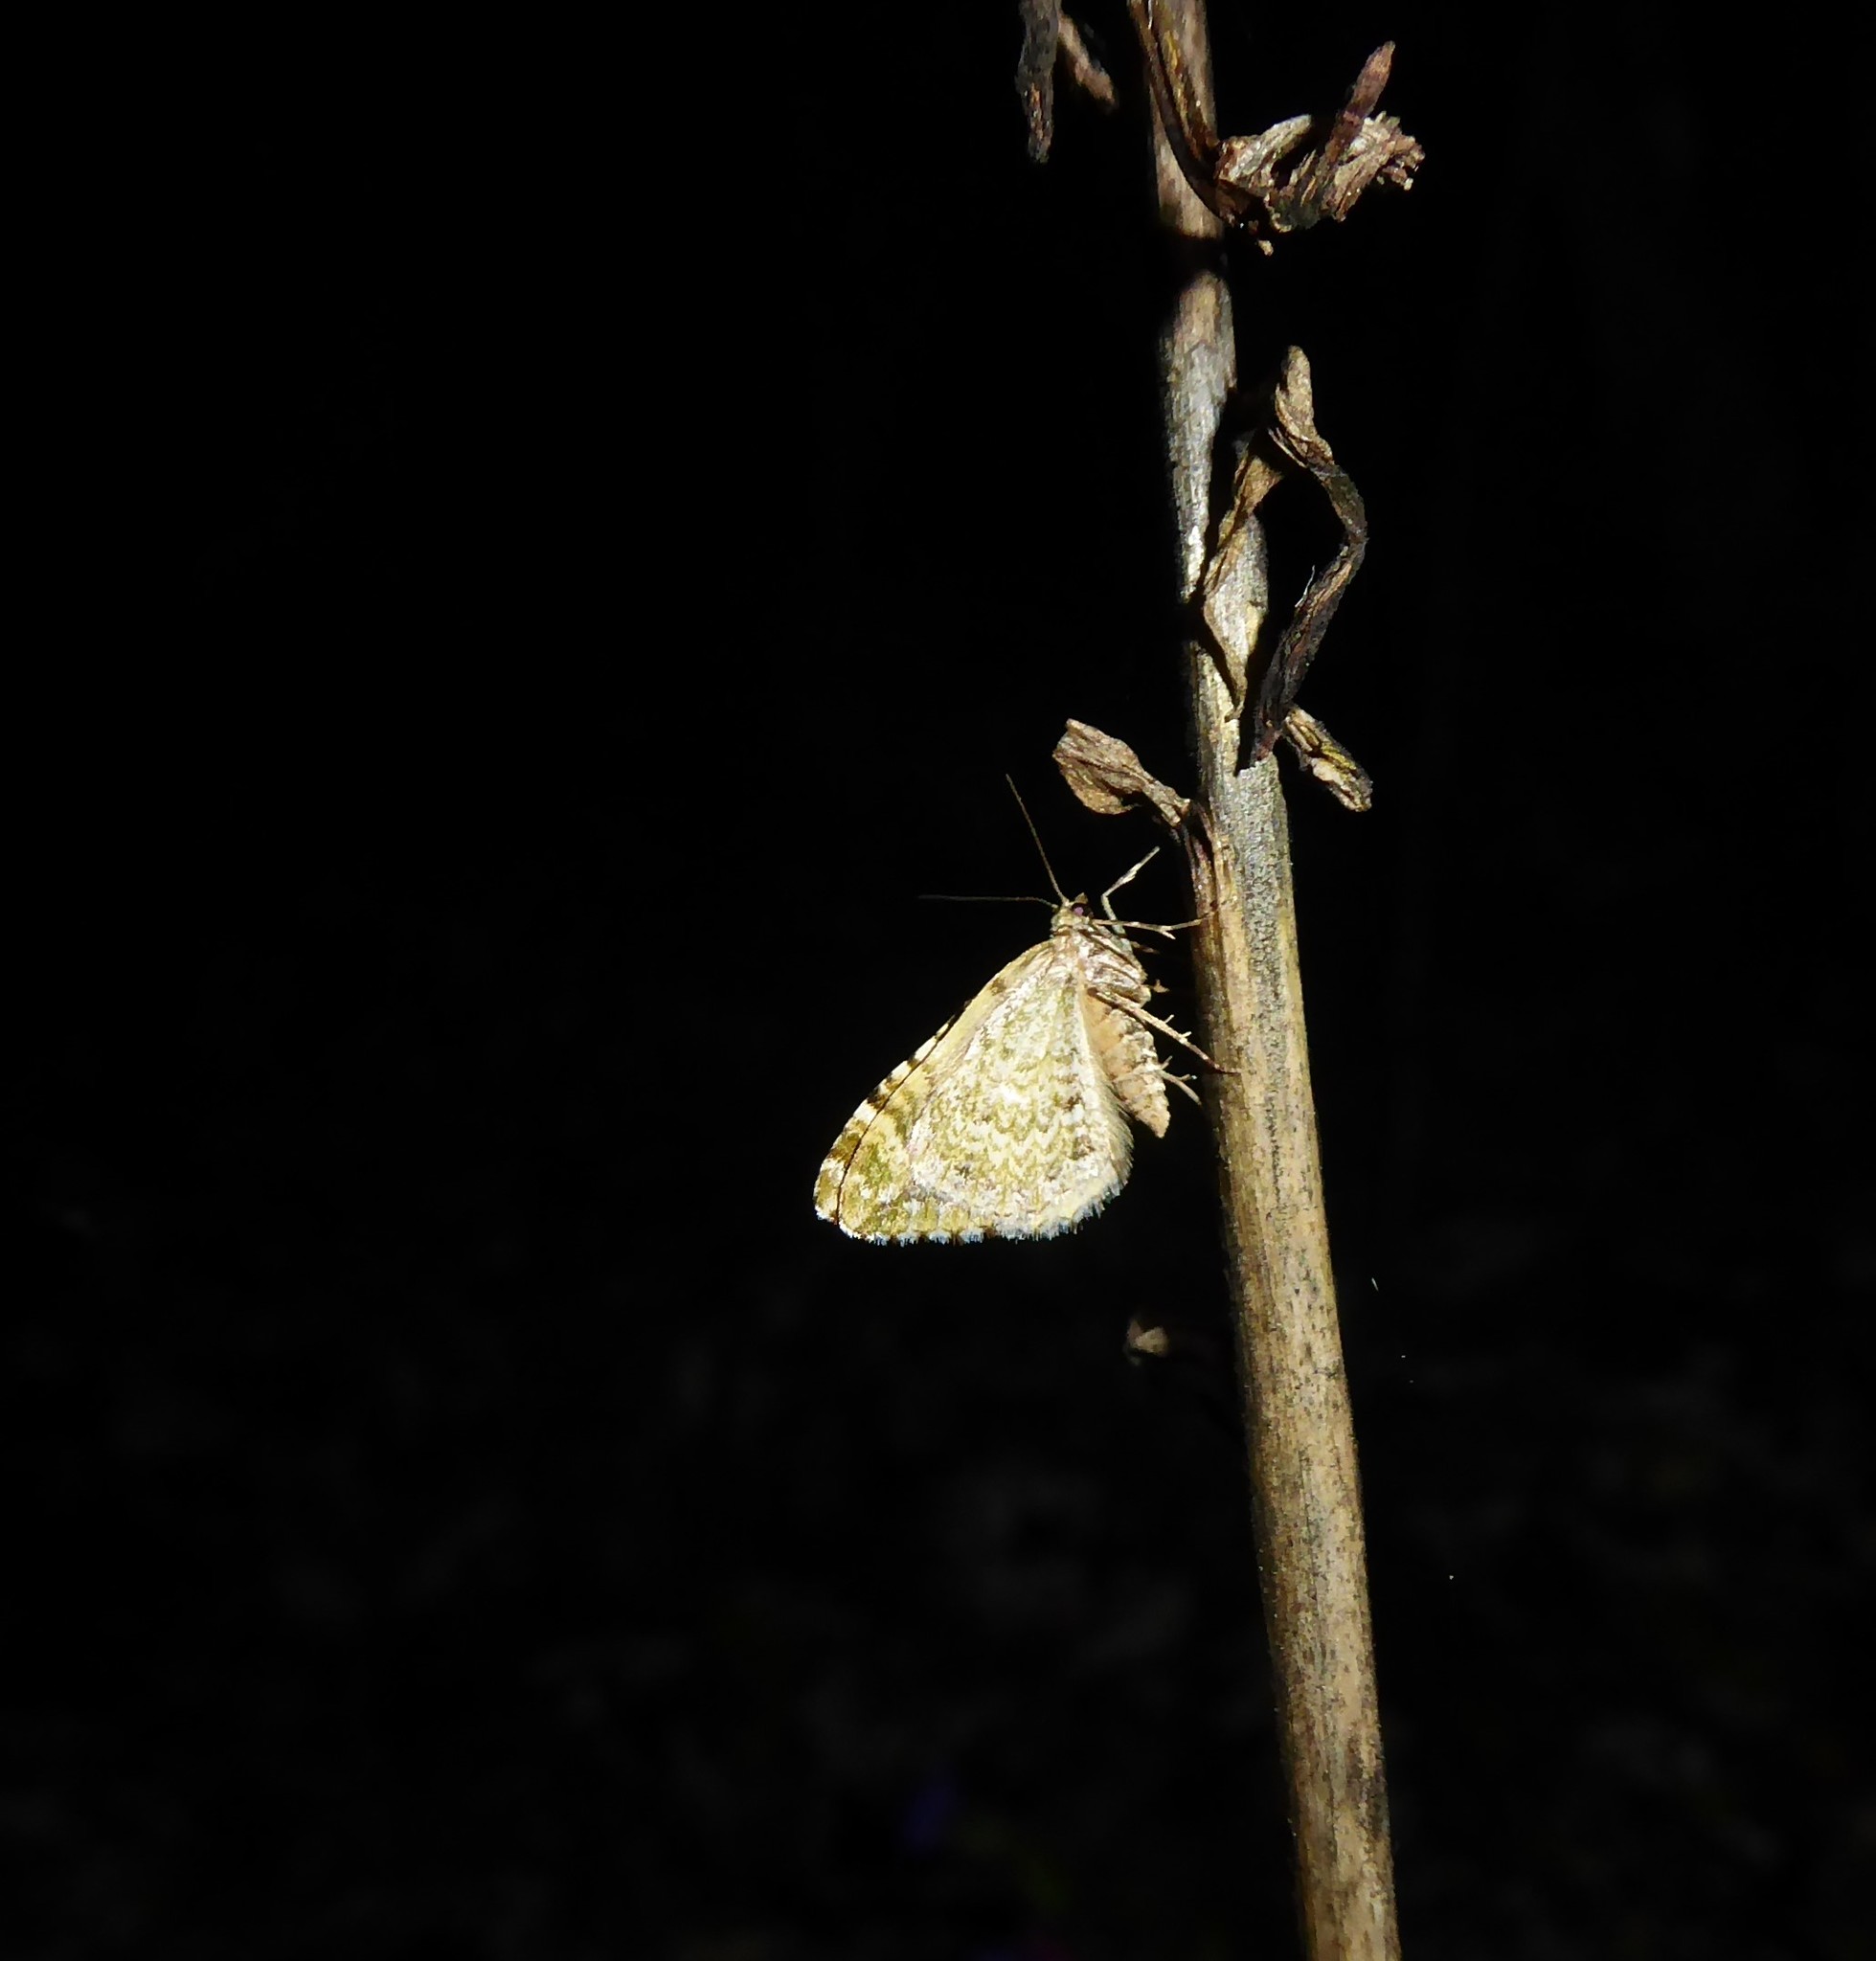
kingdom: Animalia
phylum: Arthropoda
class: Insecta
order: Lepidoptera
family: Geometridae
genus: Asaphodes
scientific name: Asaphodes beata
